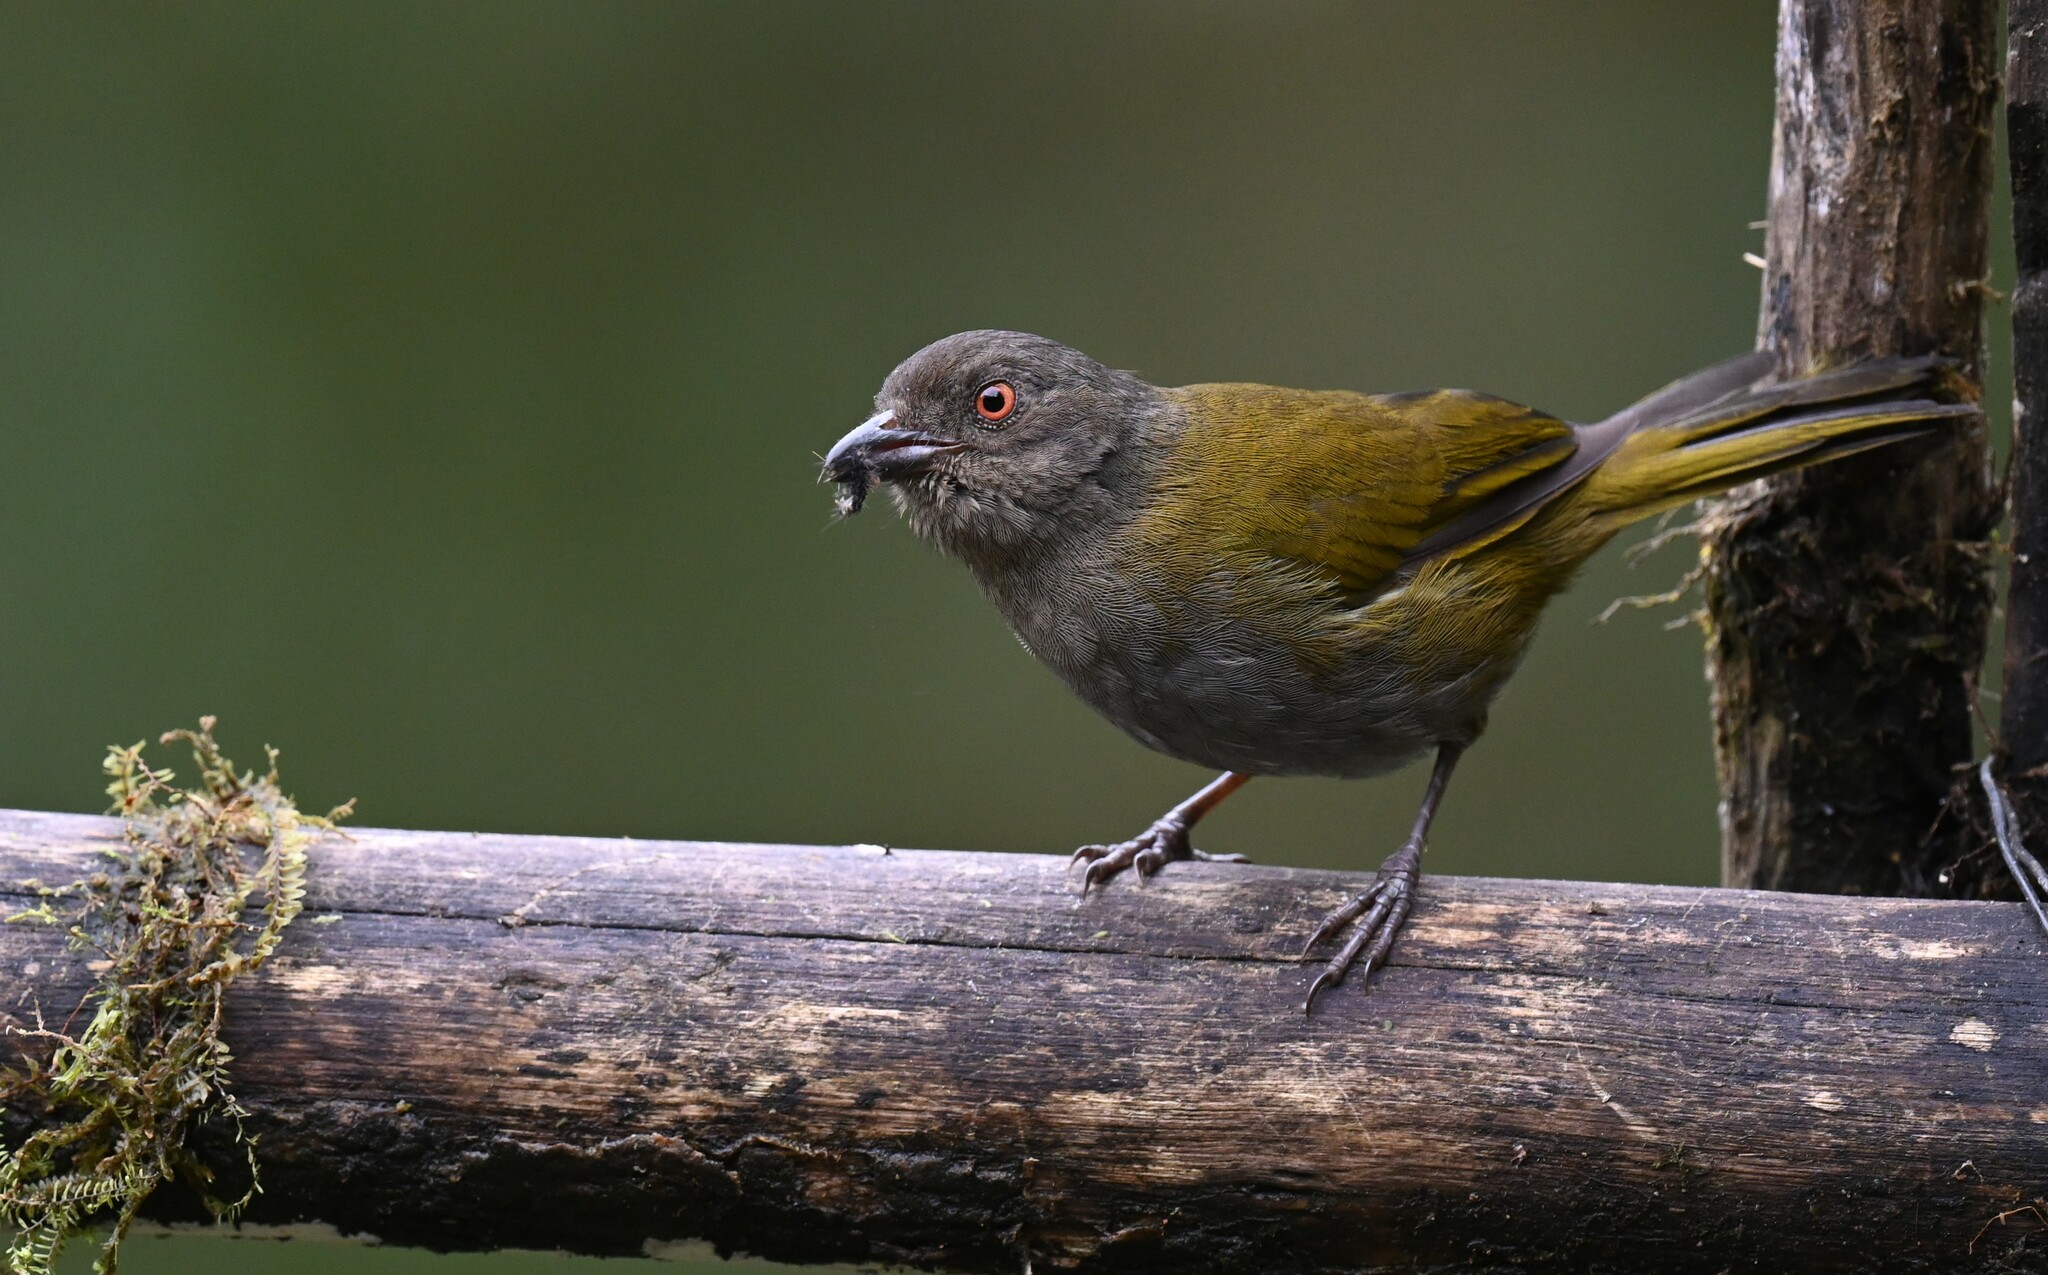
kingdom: Animalia
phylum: Chordata
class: Aves
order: Passeriformes
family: Passerellidae
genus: Chlorospingus
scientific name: Chlorospingus semifuscus
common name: Dusky bush-tanager
